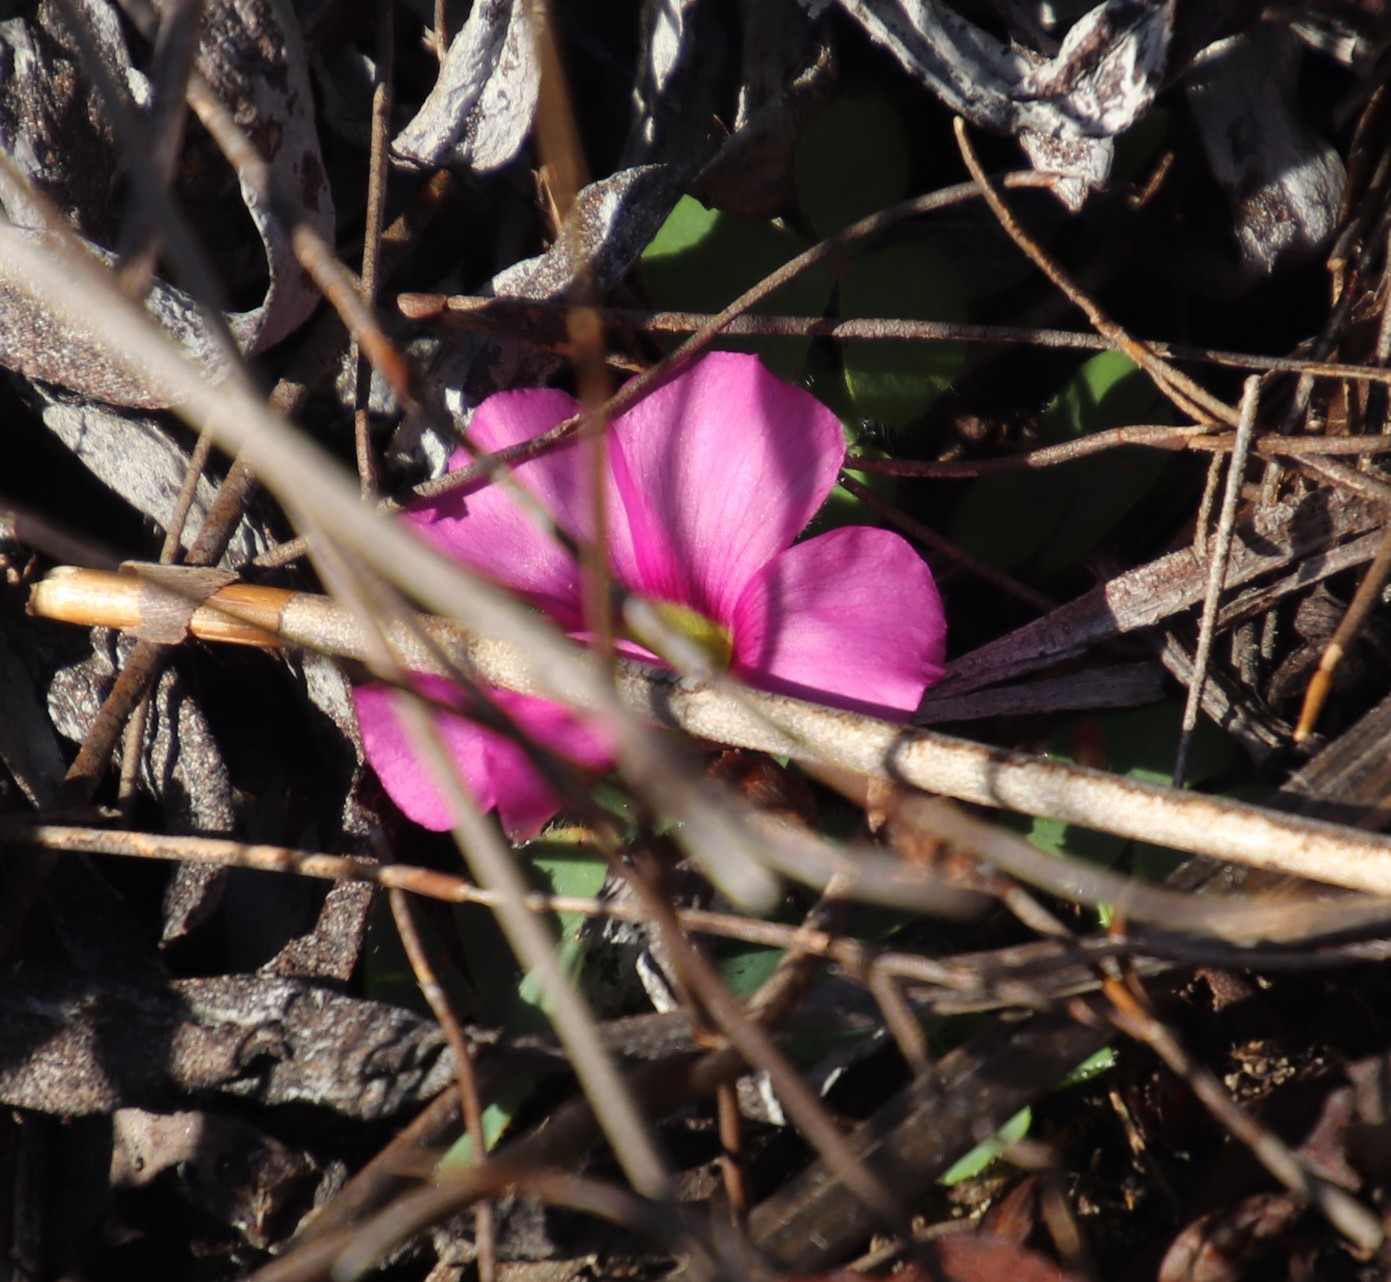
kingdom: Plantae
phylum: Tracheophyta
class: Magnoliopsida
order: Oxalidales
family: Oxalidaceae
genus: Oxalis
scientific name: Oxalis purpurea
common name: Purple woodsorrel
